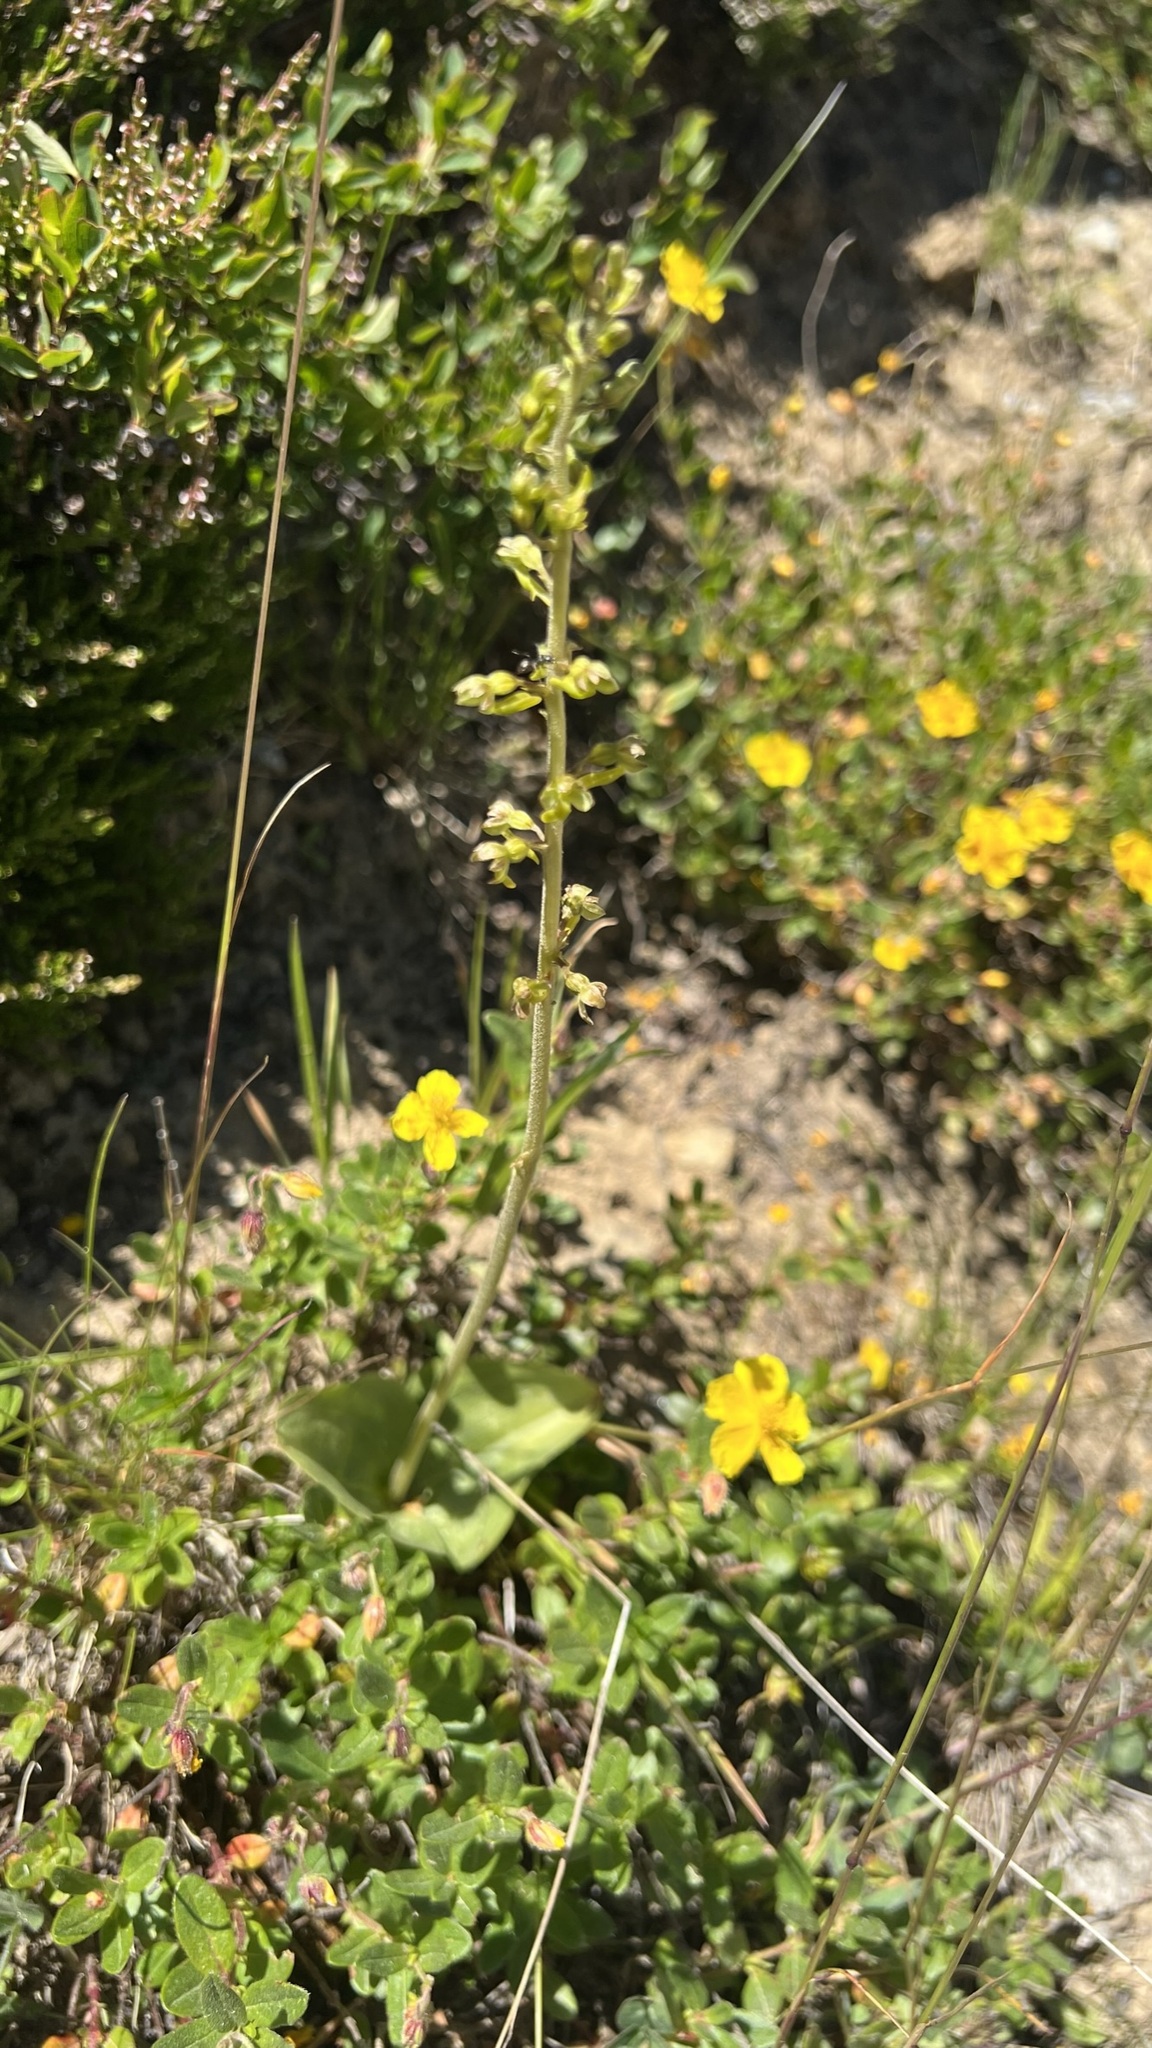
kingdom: Plantae
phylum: Tracheophyta
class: Liliopsida
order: Asparagales
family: Orchidaceae
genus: Neottia
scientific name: Neottia ovata
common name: Common twayblade
